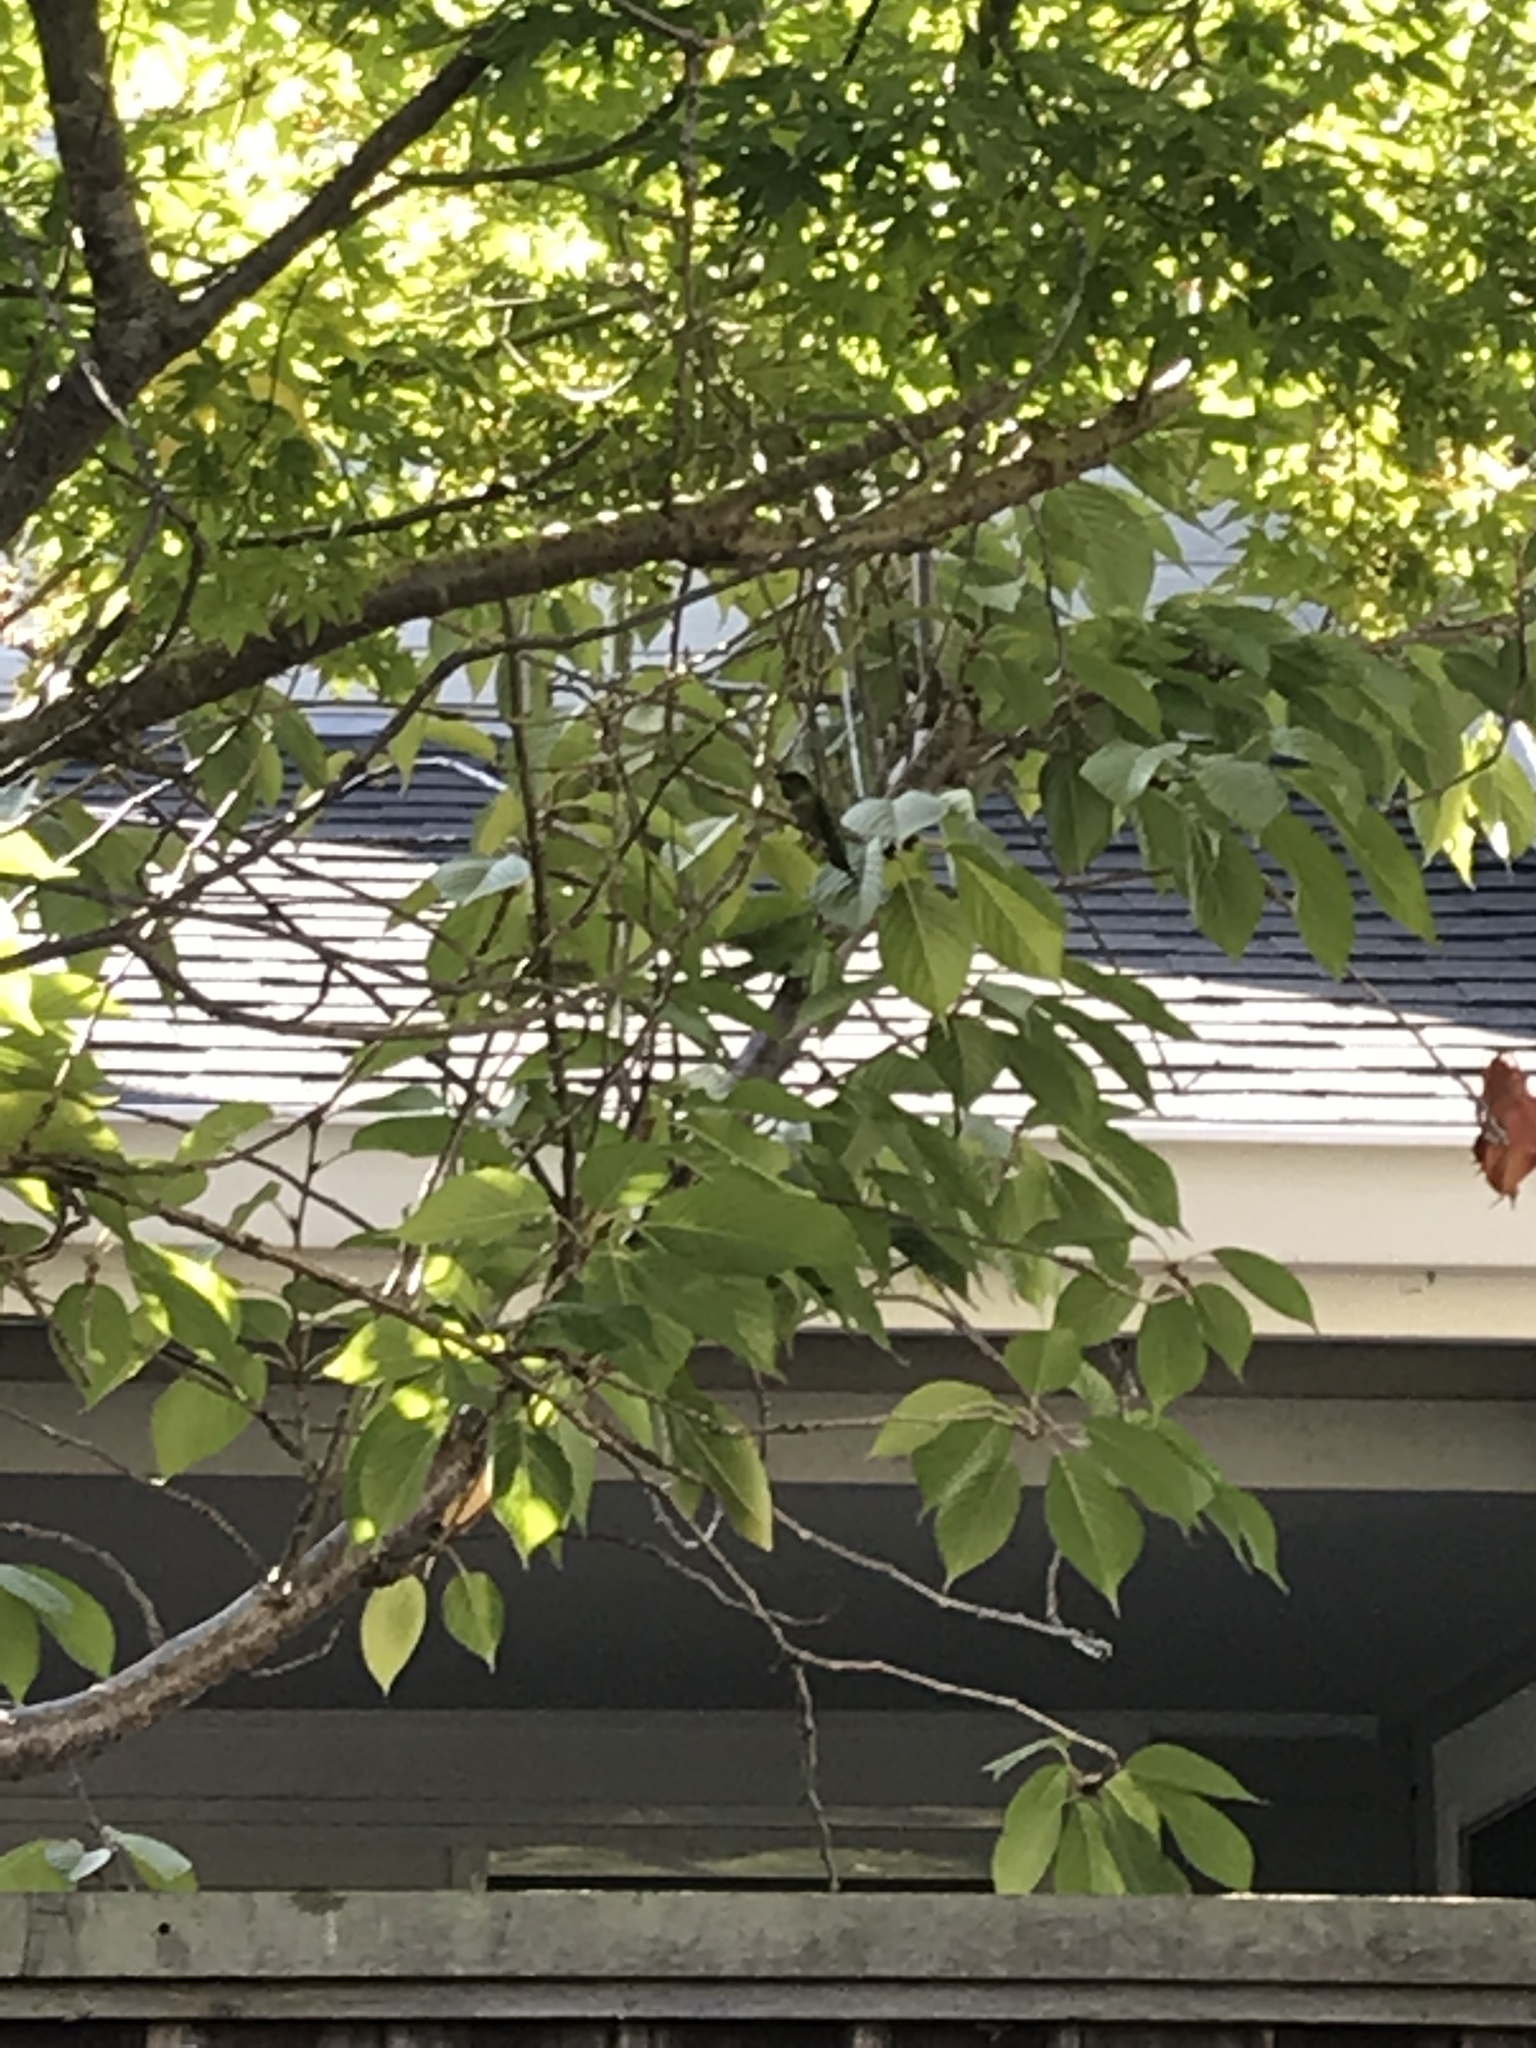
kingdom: Animalia
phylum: Chordata
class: Aves
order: Apodiformes
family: Trochilidae
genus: Calypte
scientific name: Calypte anna
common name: Anna's hummingbird
